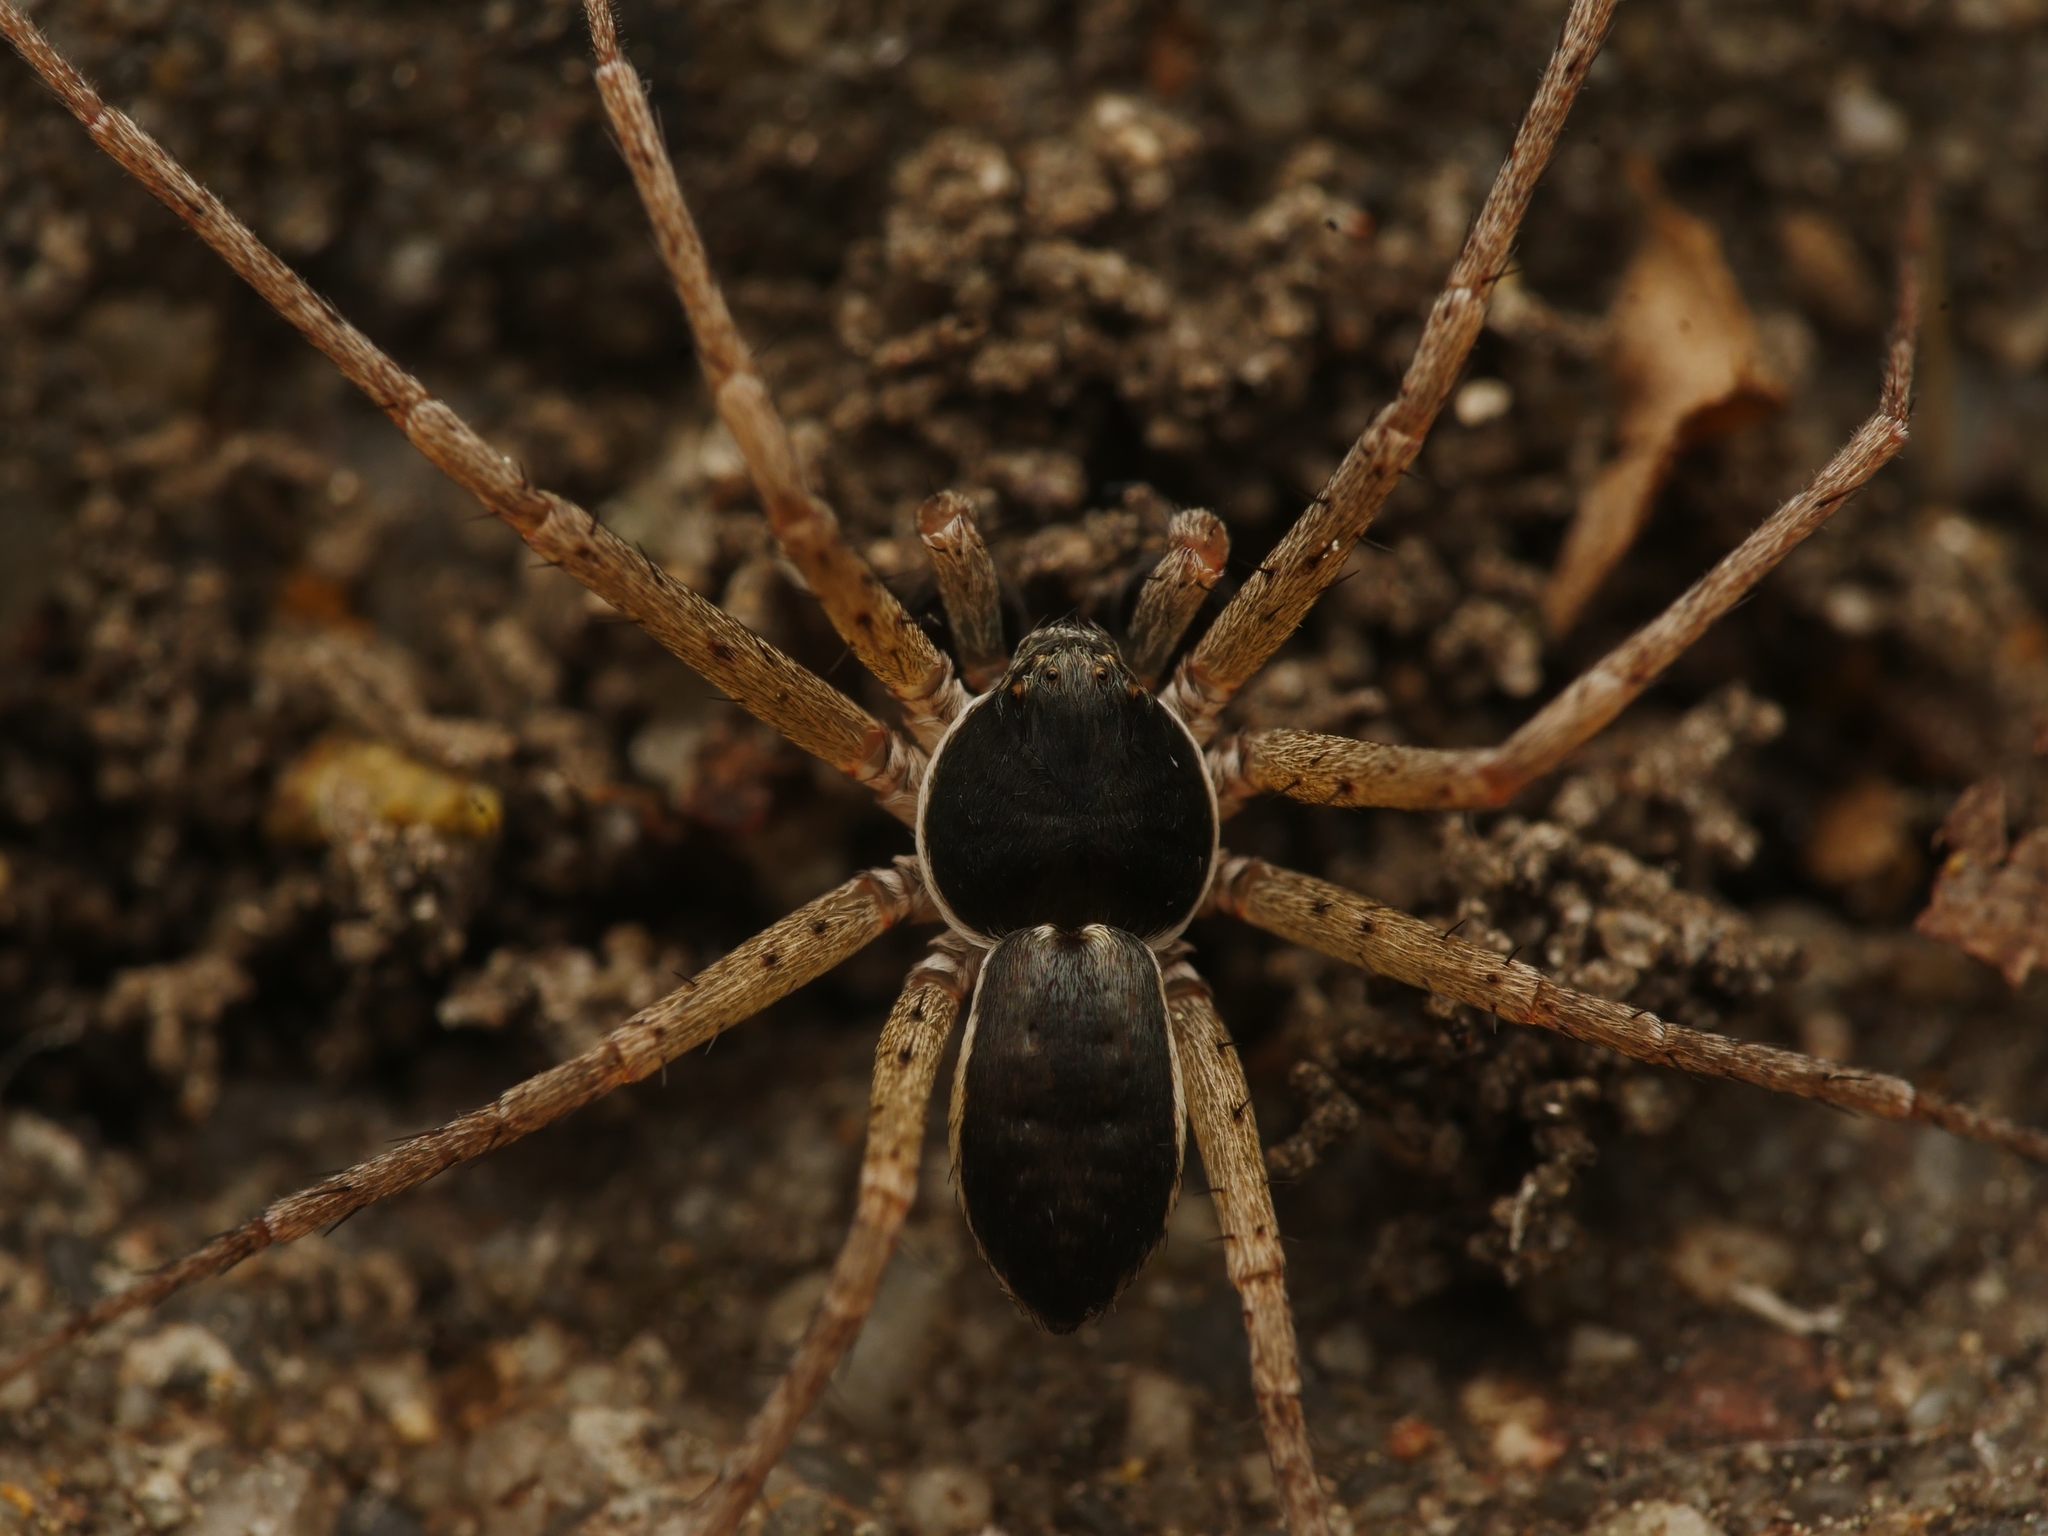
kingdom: Animalia
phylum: Arthropoda
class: Arachnida
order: Araneae
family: Philodromidae
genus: Philodromus
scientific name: Philodromus dispar
